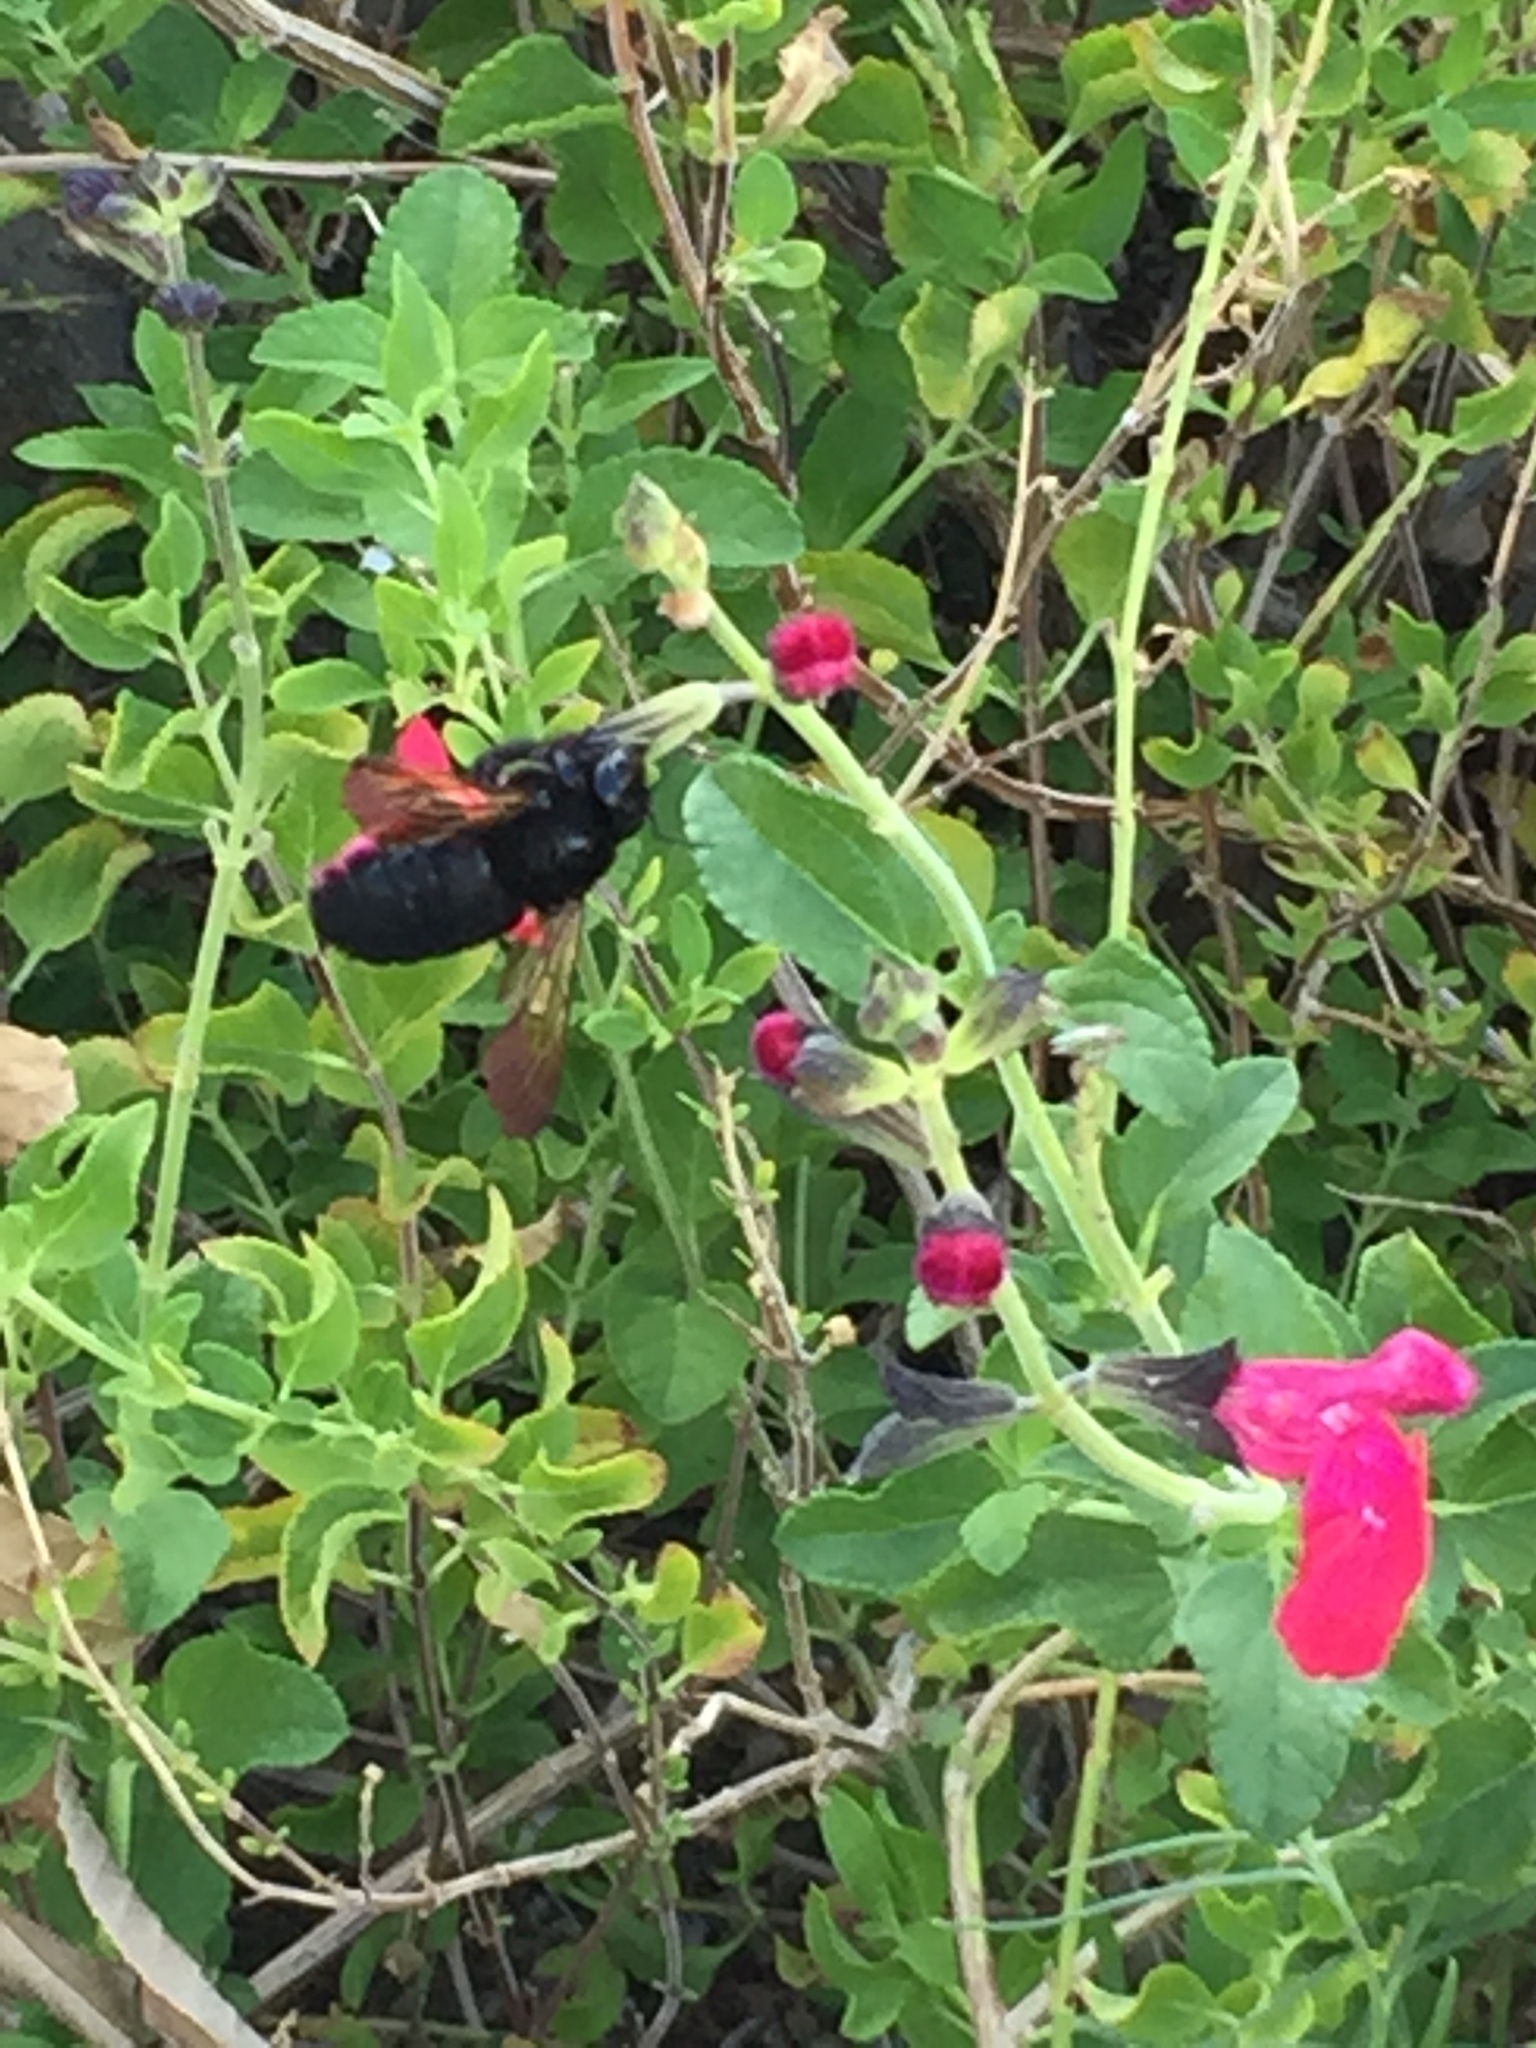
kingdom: Animalia
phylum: Arthropoda
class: Insecta
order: Hymenoptera
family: Apidae
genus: Xylocopa
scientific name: Xylocopa sonorina
